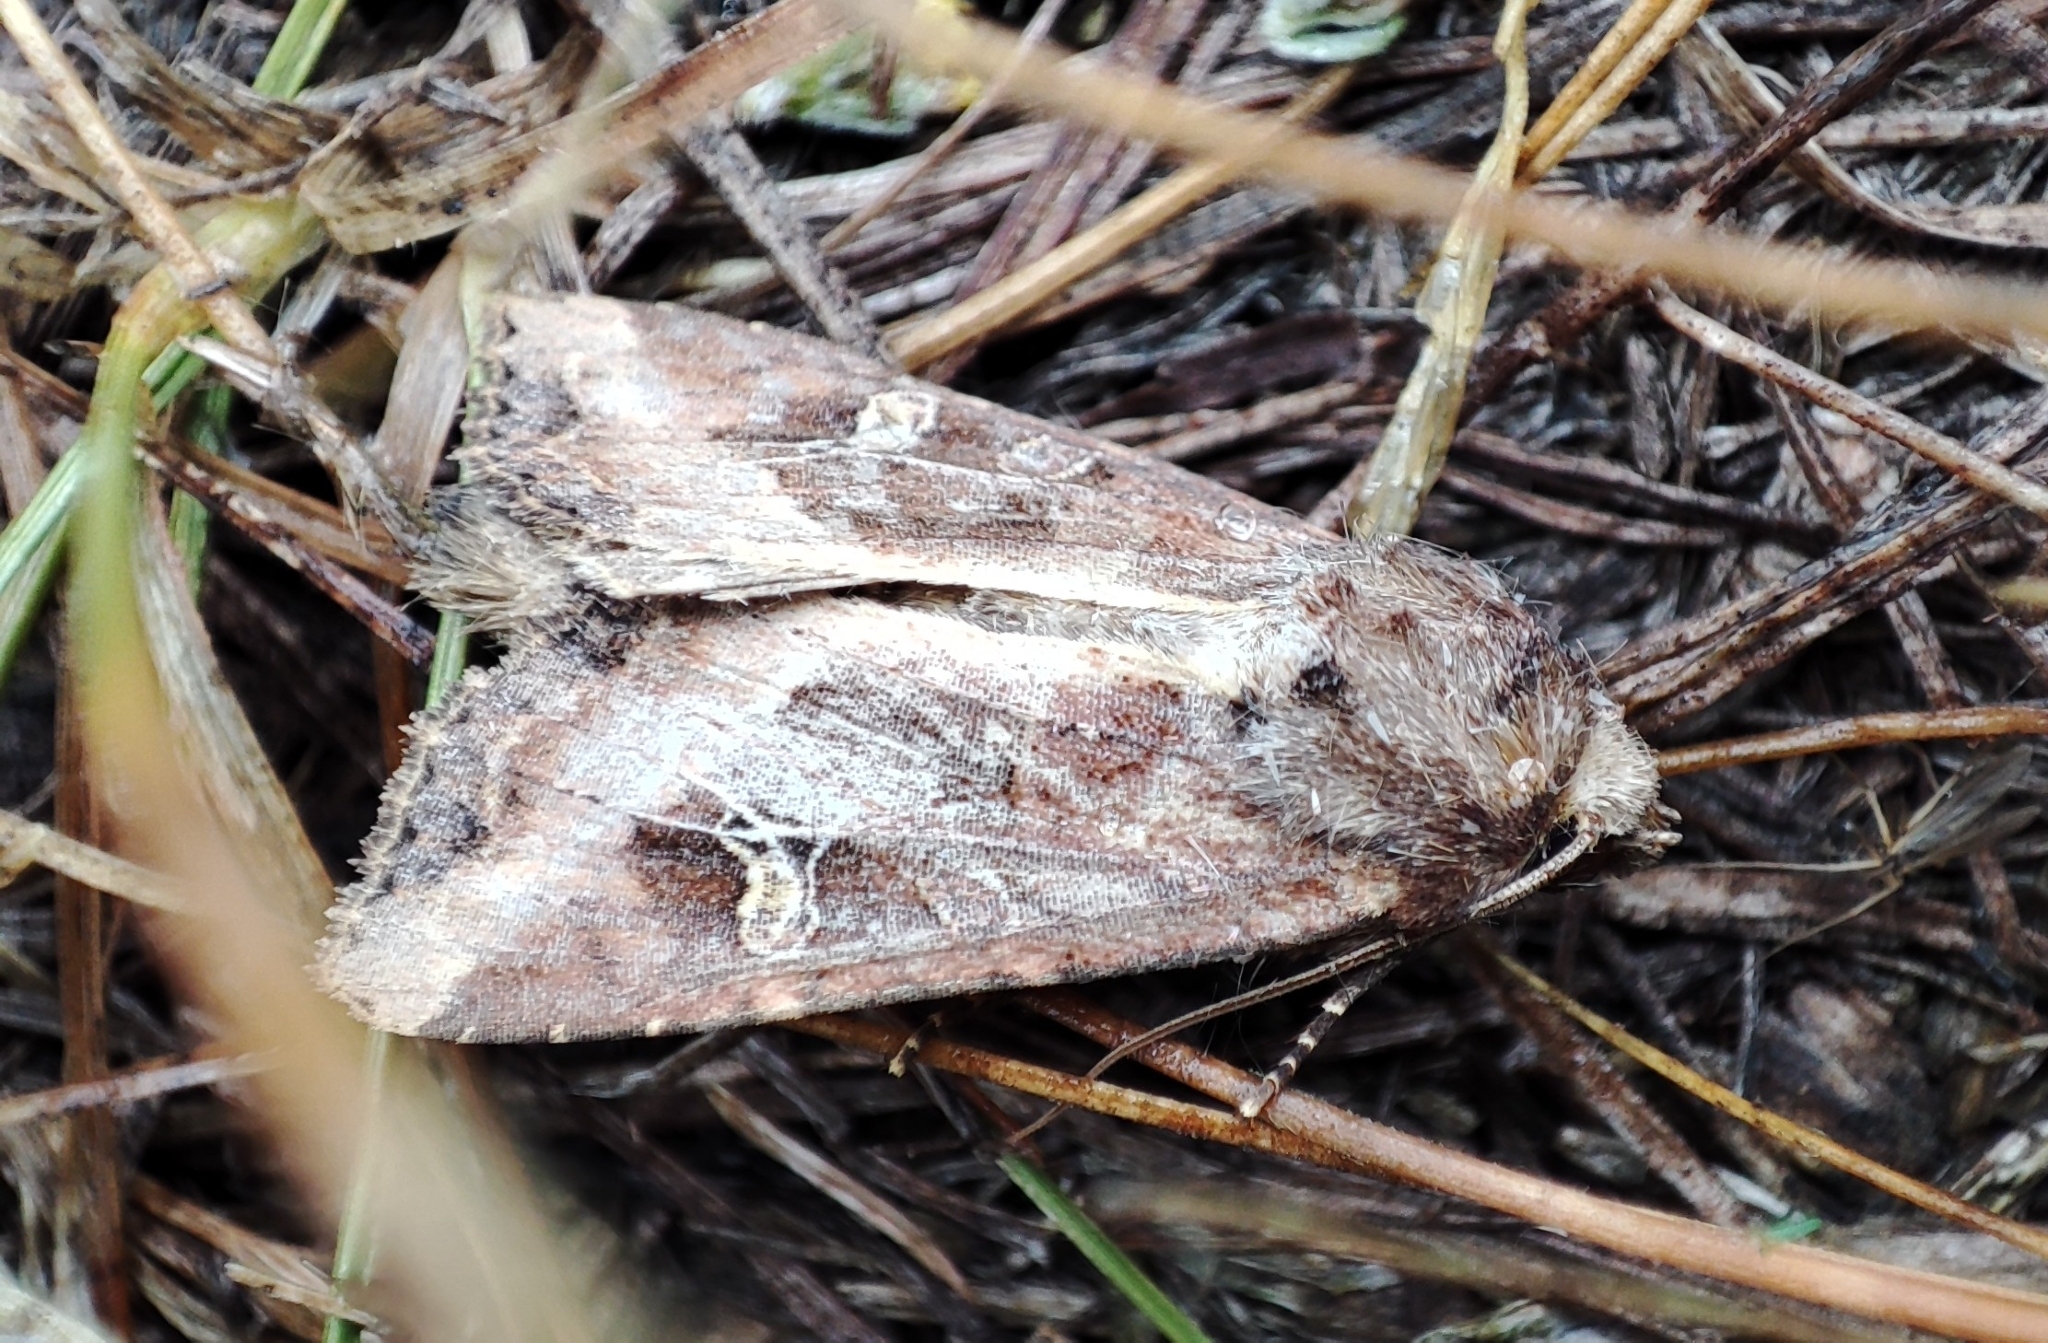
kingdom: Animalia
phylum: Arthropoda
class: Insecta
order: Lepidoptera
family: Noctuidae
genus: Helotropha
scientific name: Helotropha leucostigma
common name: The crescent
